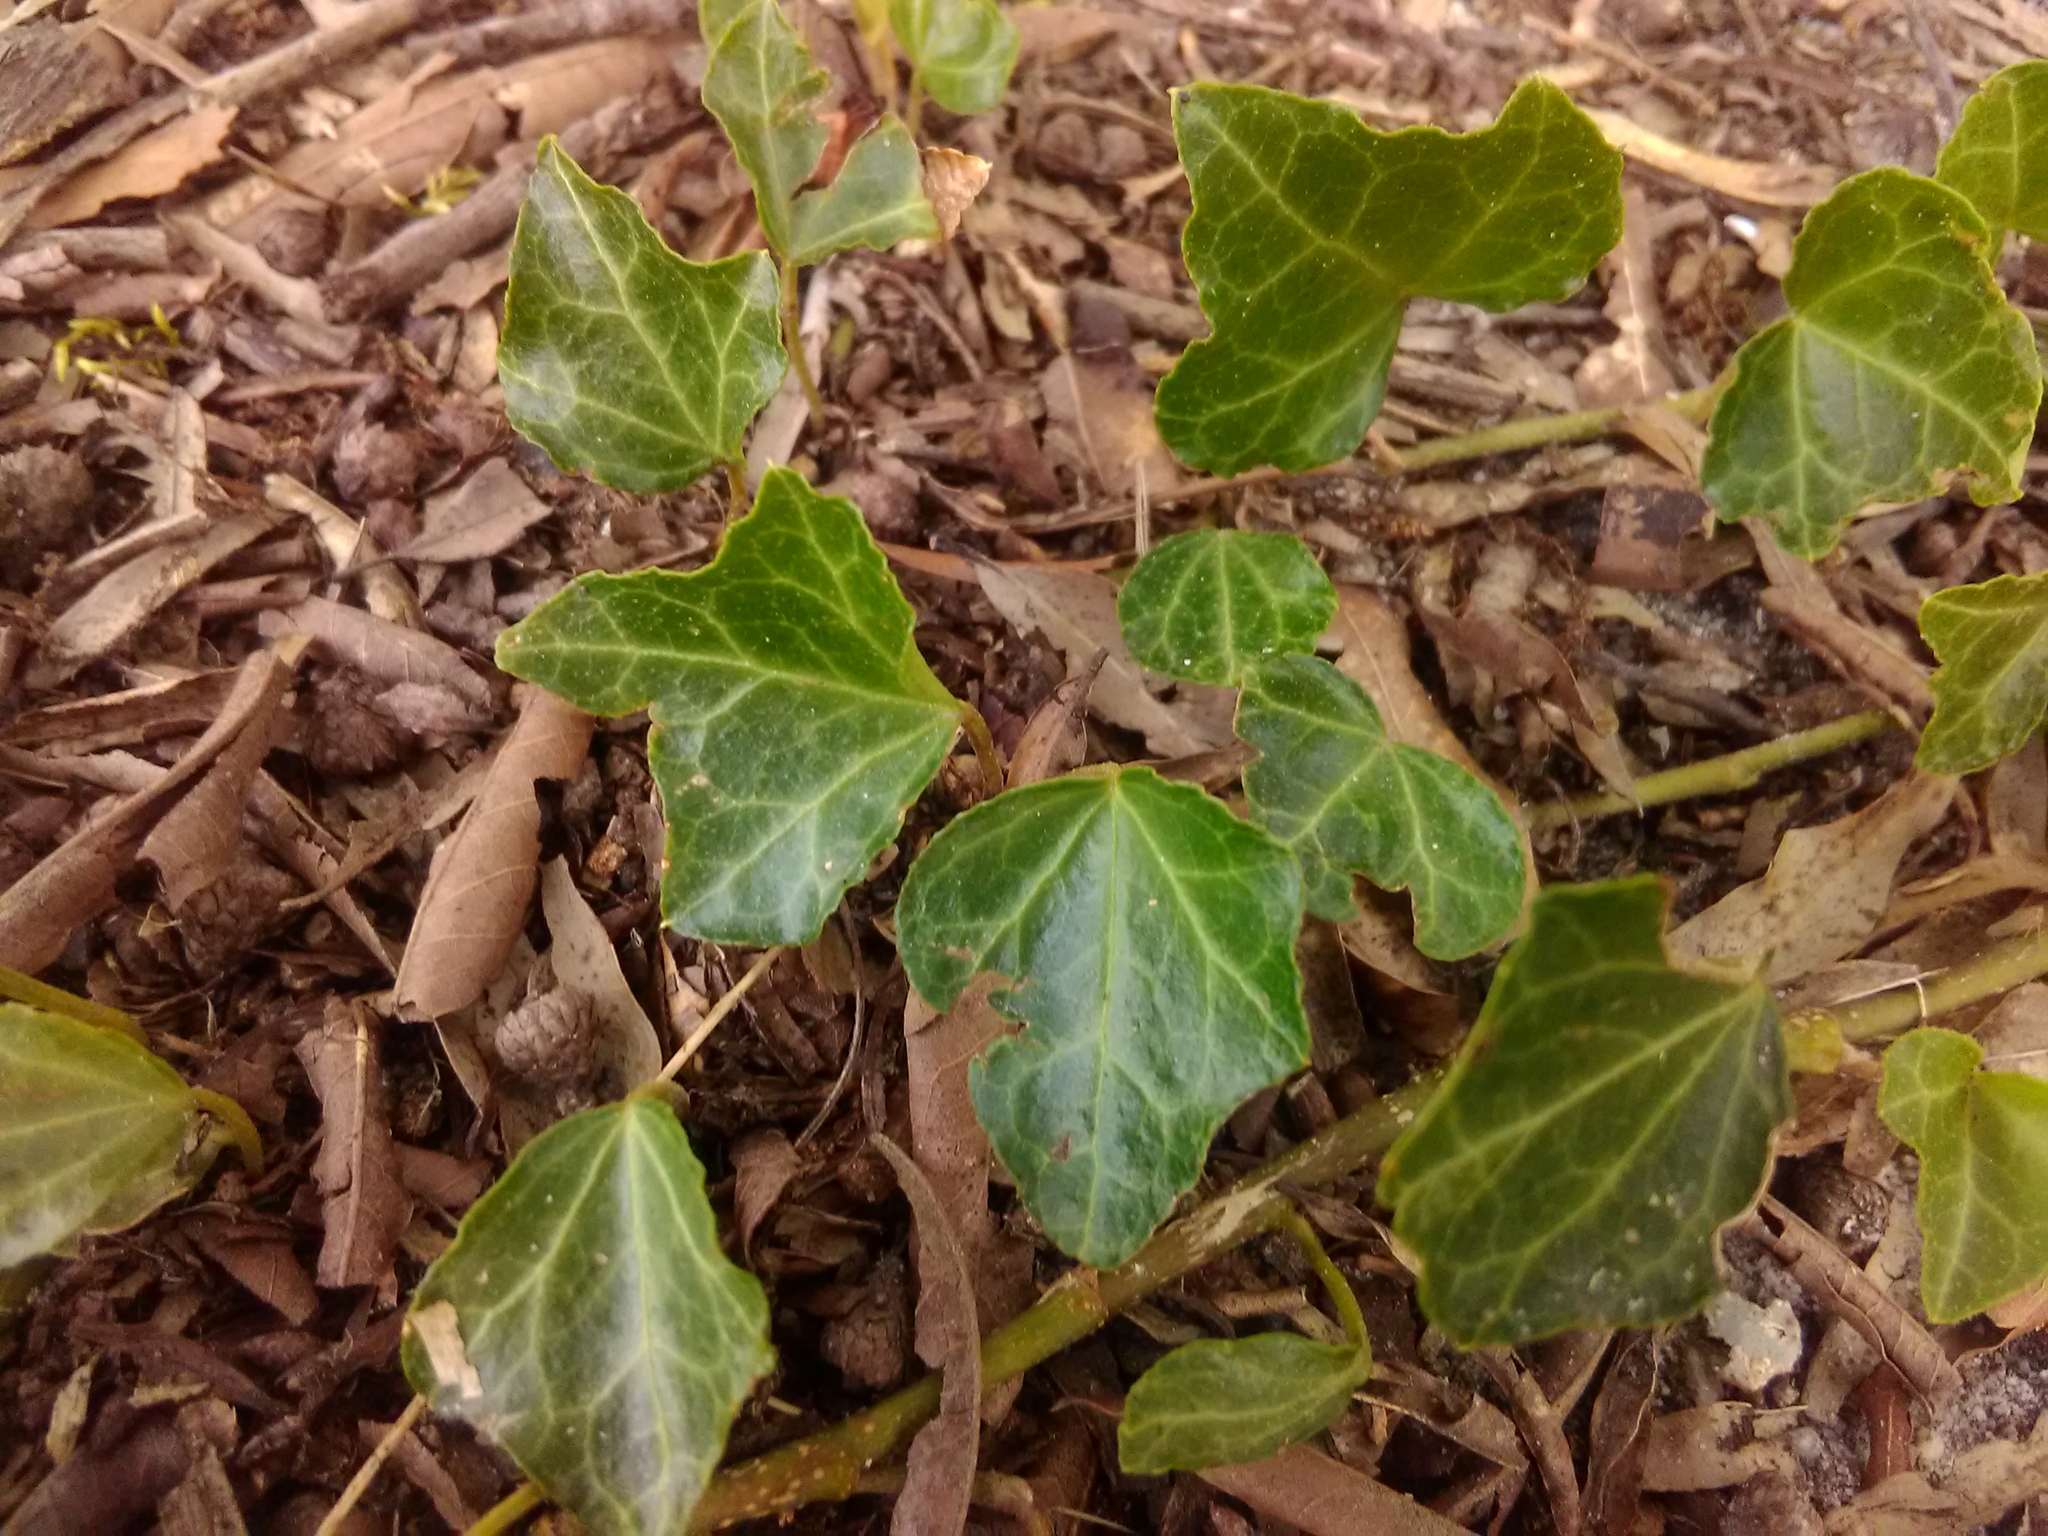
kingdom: Plantae
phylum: Tracheophyta
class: Magnoliopsida
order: Apiales
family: Araliaceae
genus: Hedera
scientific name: Hedera helix
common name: Ivy
